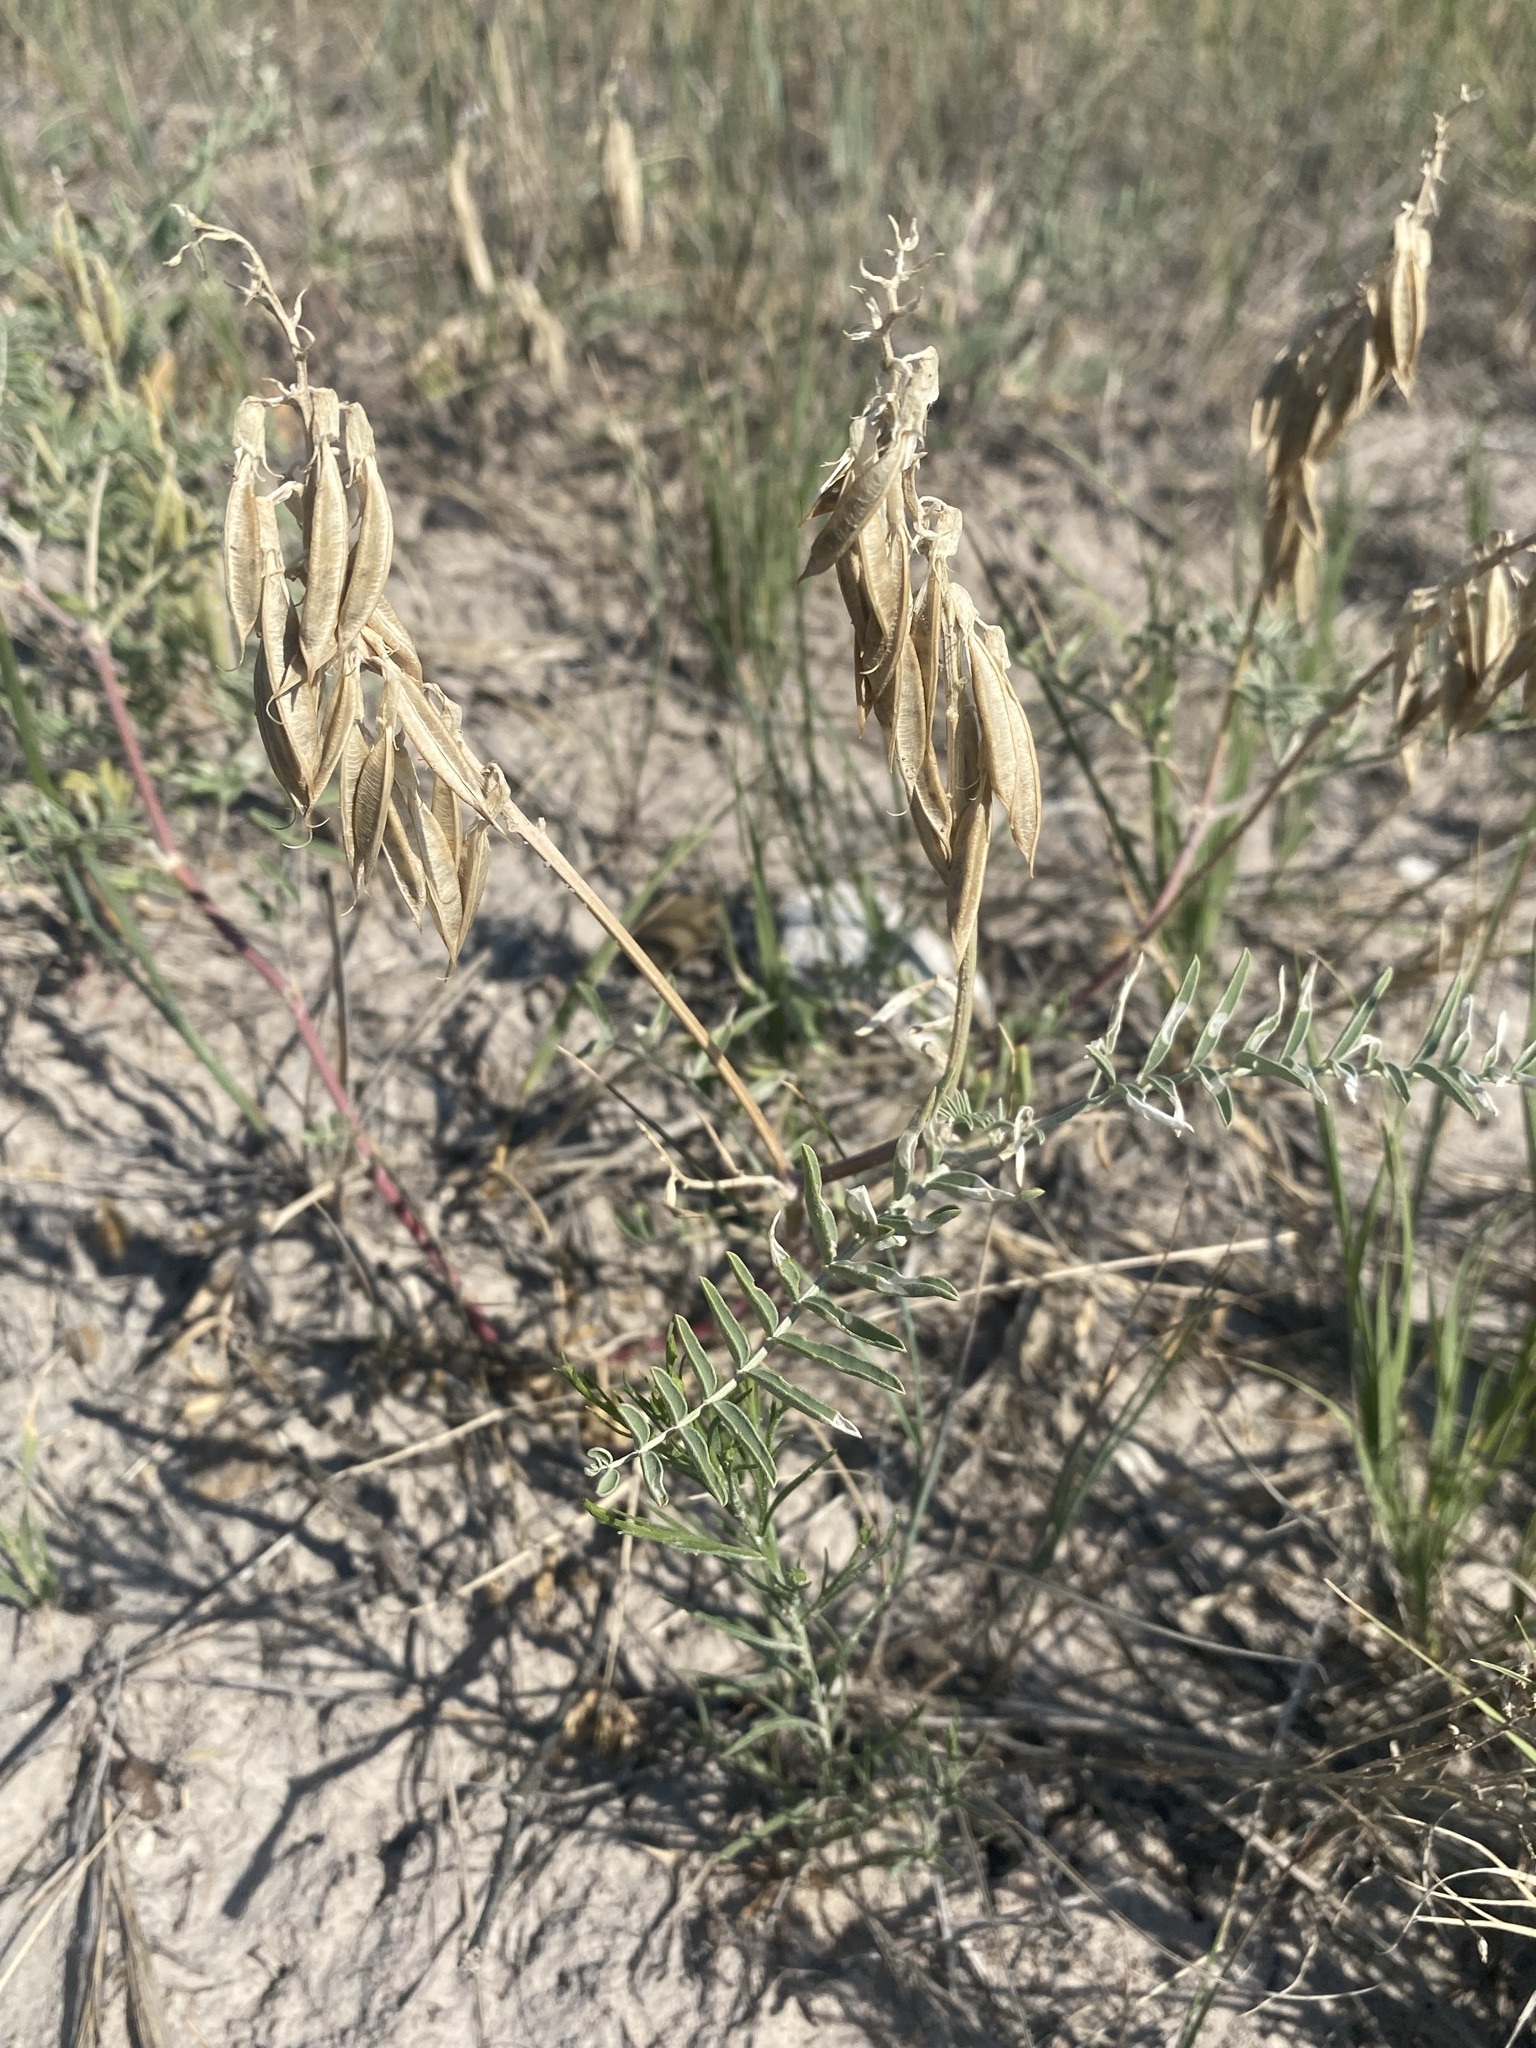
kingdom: Plantae
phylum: Tracheophyta
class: Magnoliopsida
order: Fabales
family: Fabaceae
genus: Astragalus
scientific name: Astragalus racemosus
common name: Alkali milk-vetch
